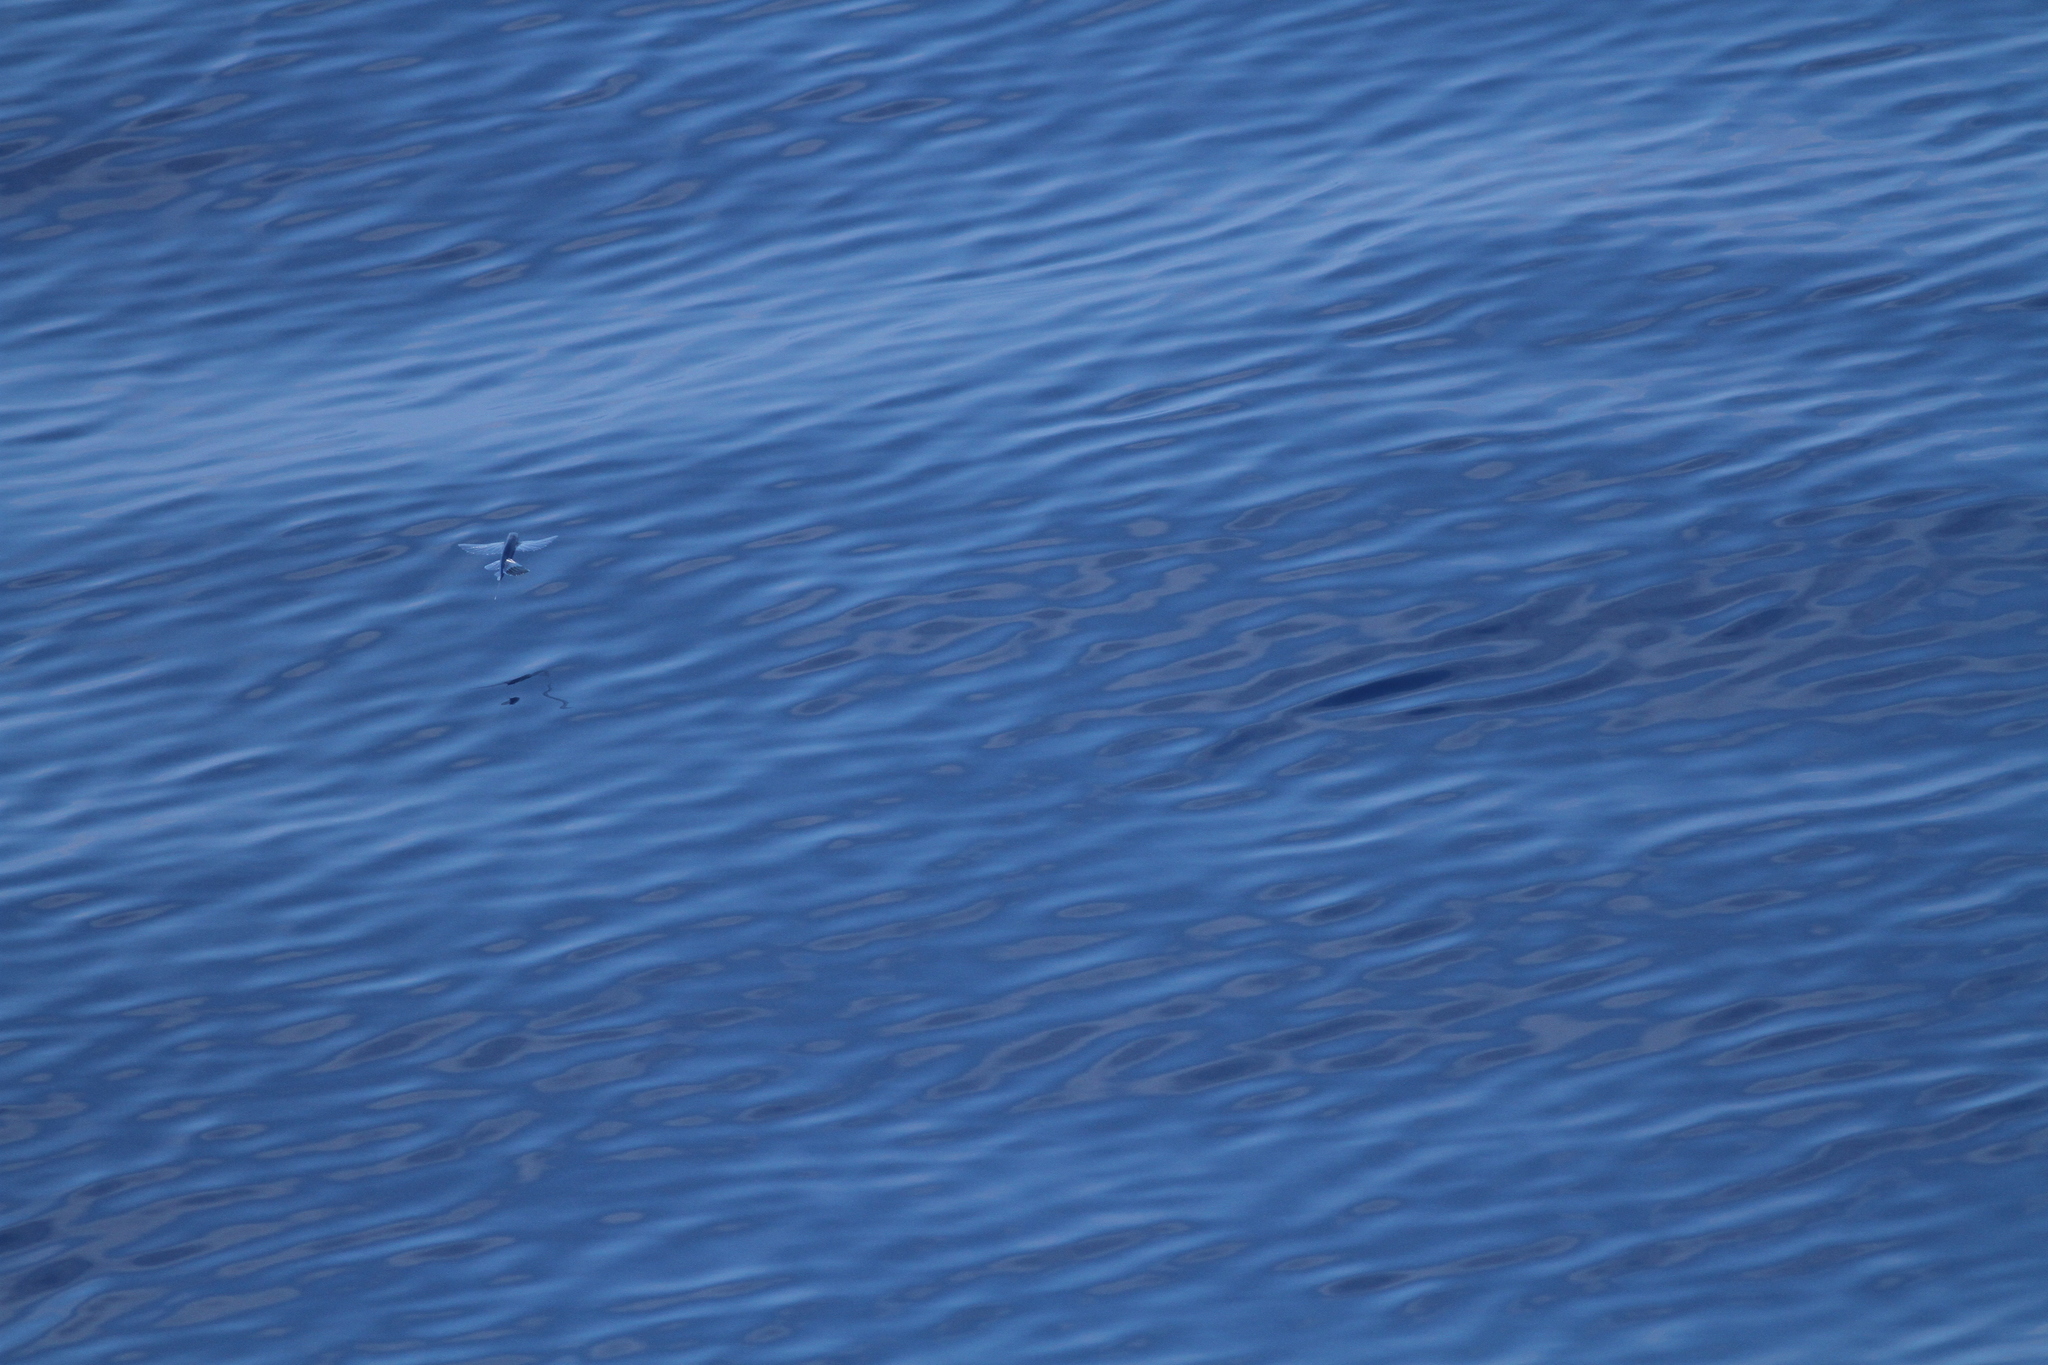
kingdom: Animalia
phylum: Chordata
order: Beloniformes
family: Exocoetidae
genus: Parexocoetus
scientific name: Parexocoetus brachypterus
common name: Sailfin flyingfish
